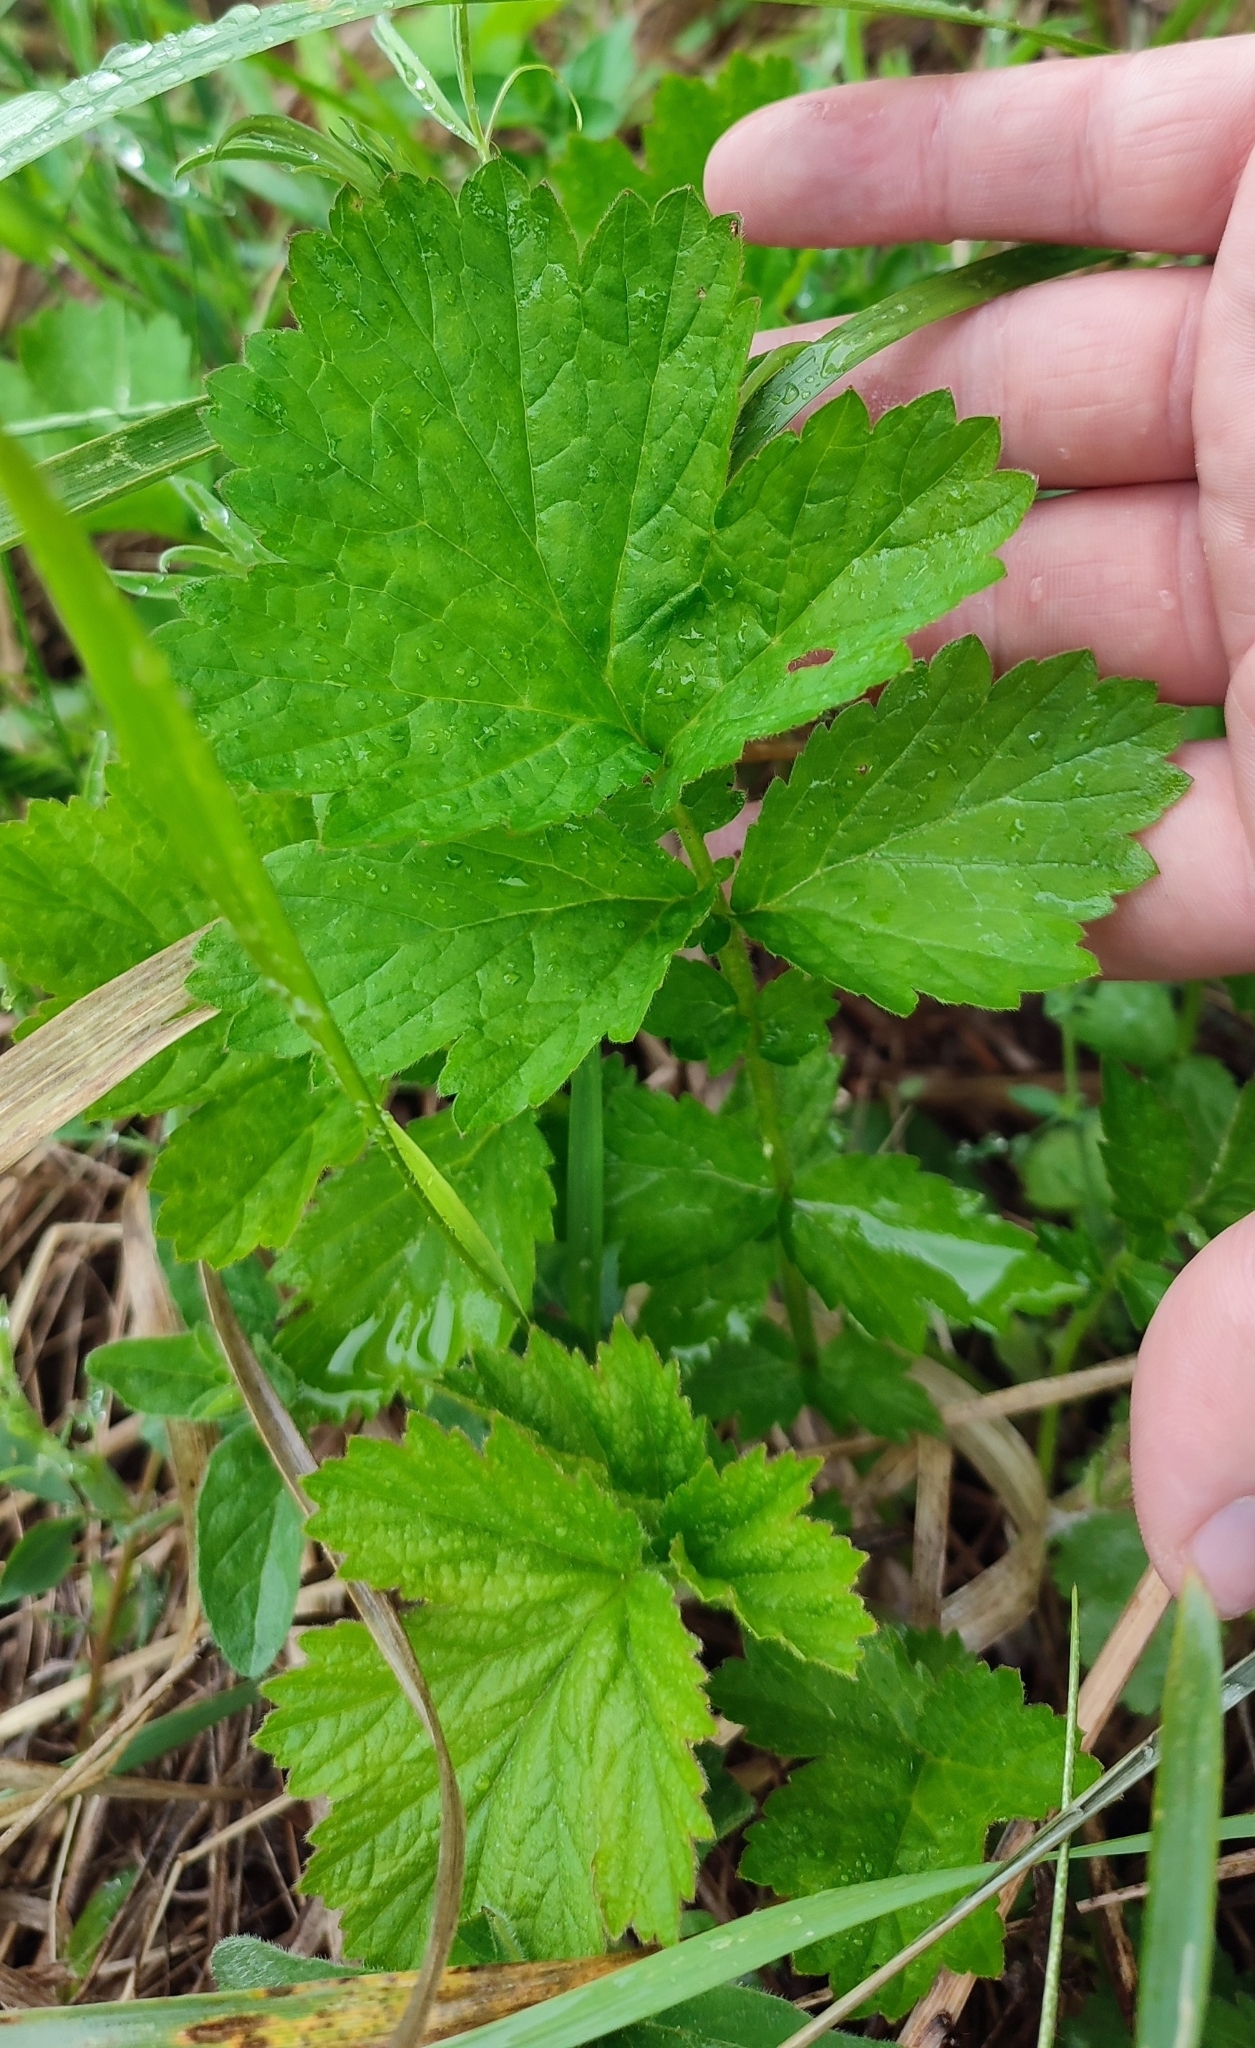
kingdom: Plantae
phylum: Tracheophyta
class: Magnoliopsida
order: Rosales
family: Rosaceae
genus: Geum
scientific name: Geum rivale
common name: Water avens
